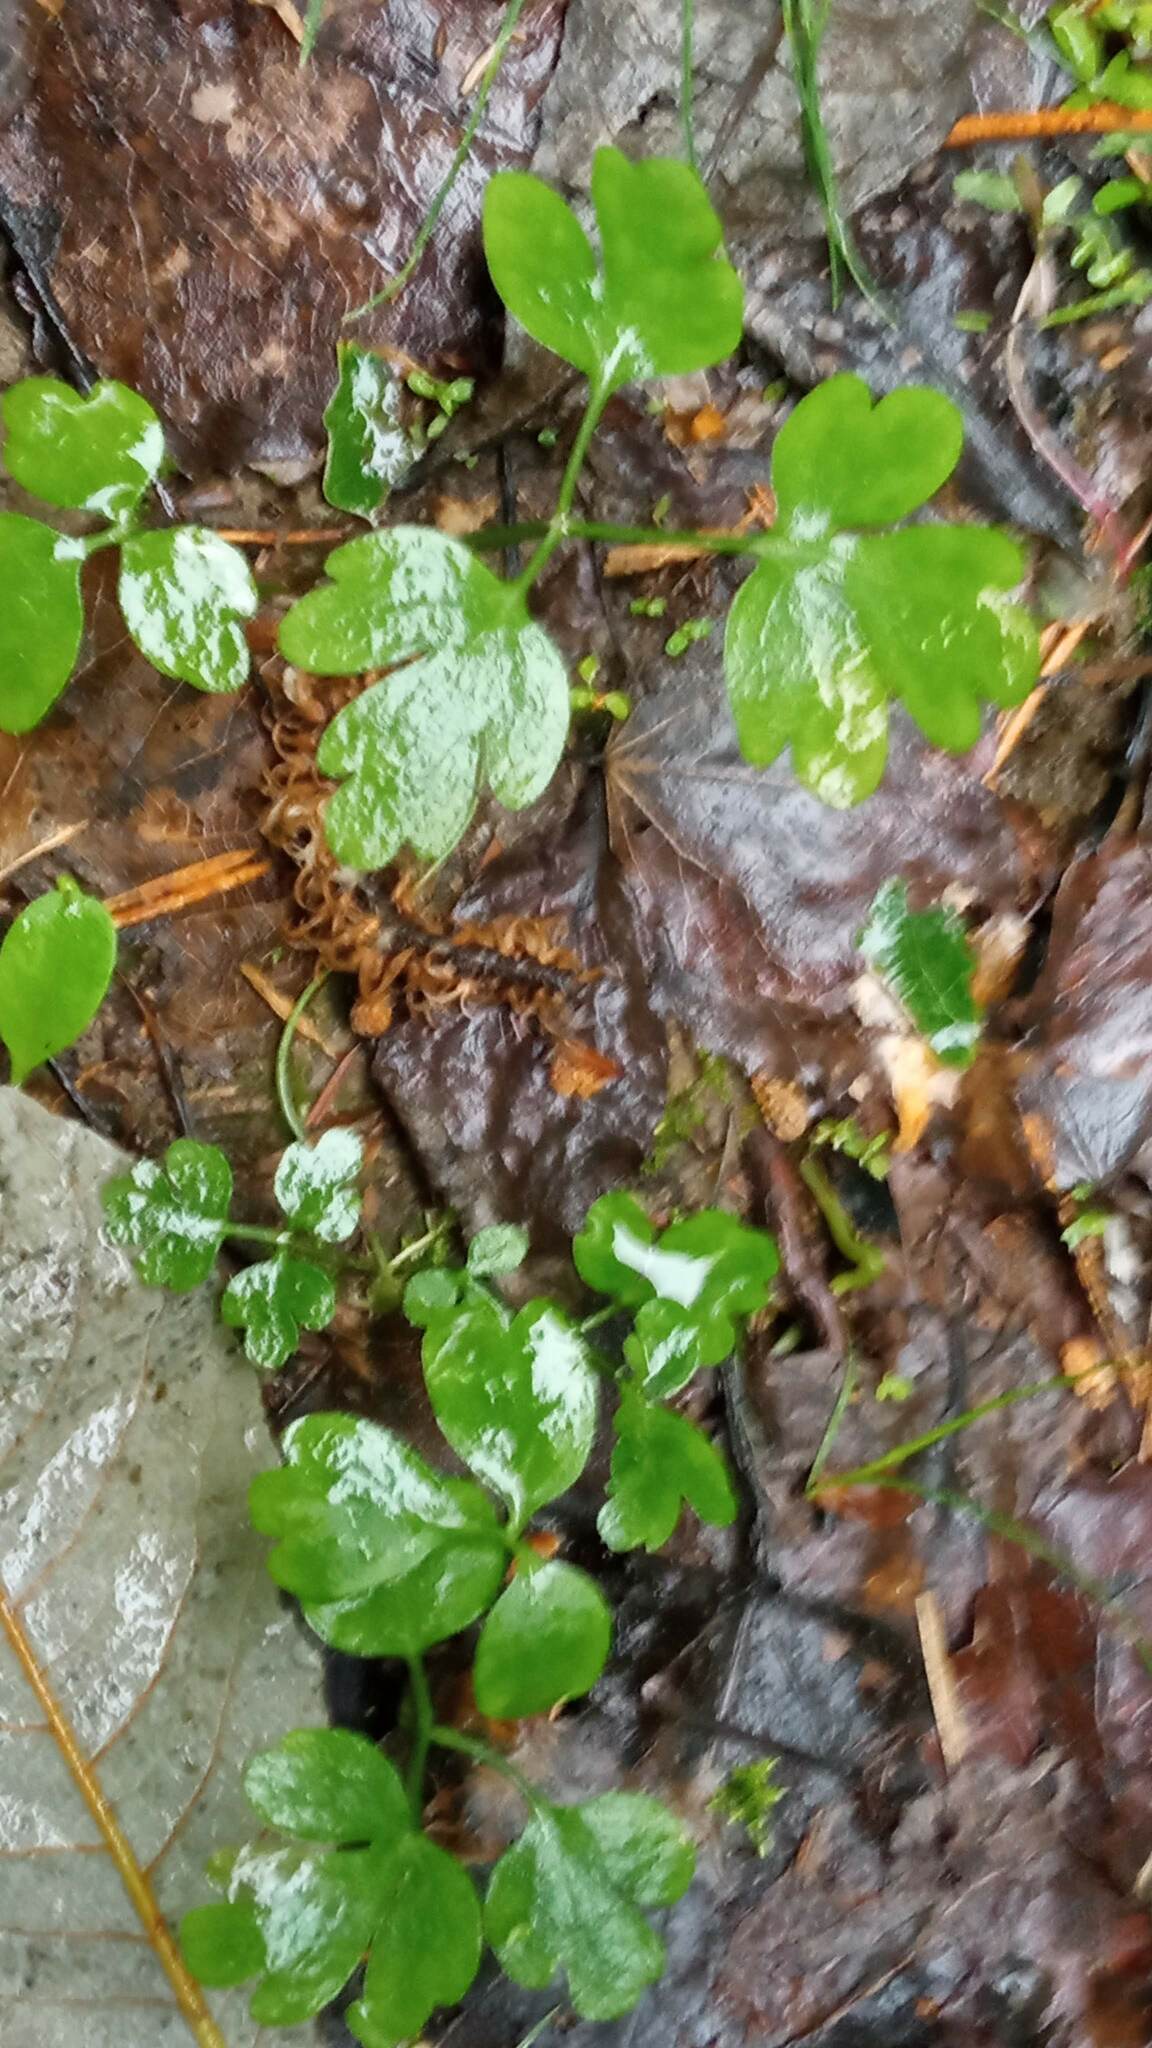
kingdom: Plantae
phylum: Tracheophyta
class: Magnoliopsida
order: Dipsacales
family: Viburnaceae
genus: Adoxa
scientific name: Adoxa moschatellina
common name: Moschatel
